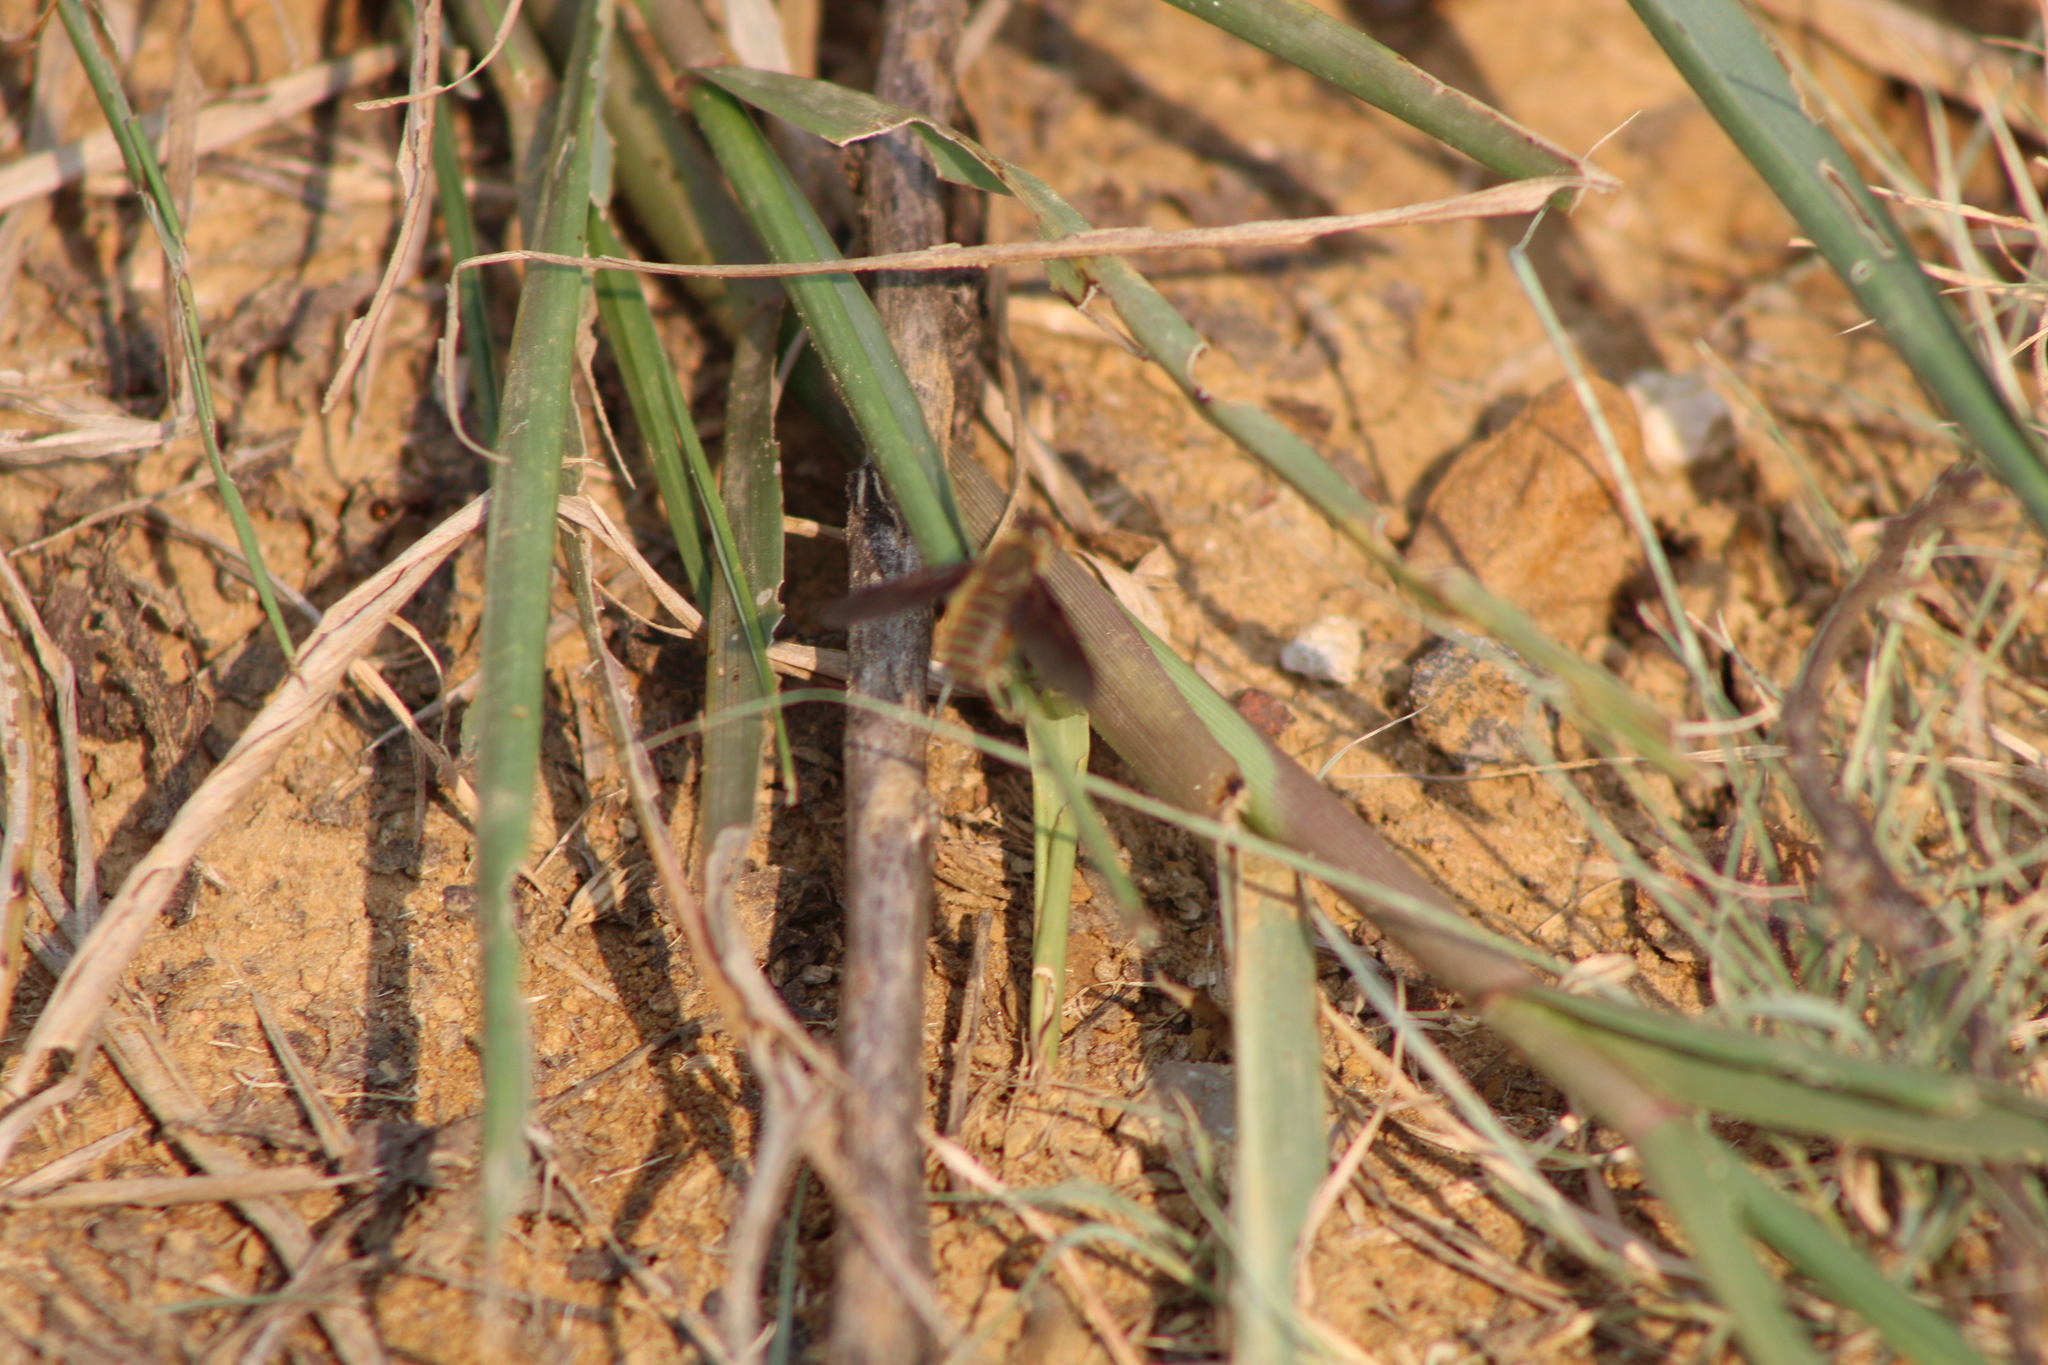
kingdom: Animalia
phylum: Arthropoda
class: Insecta
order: Diptera
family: Bombyliidae
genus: Poecilanthrax
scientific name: Poecilanthrax lucifer
